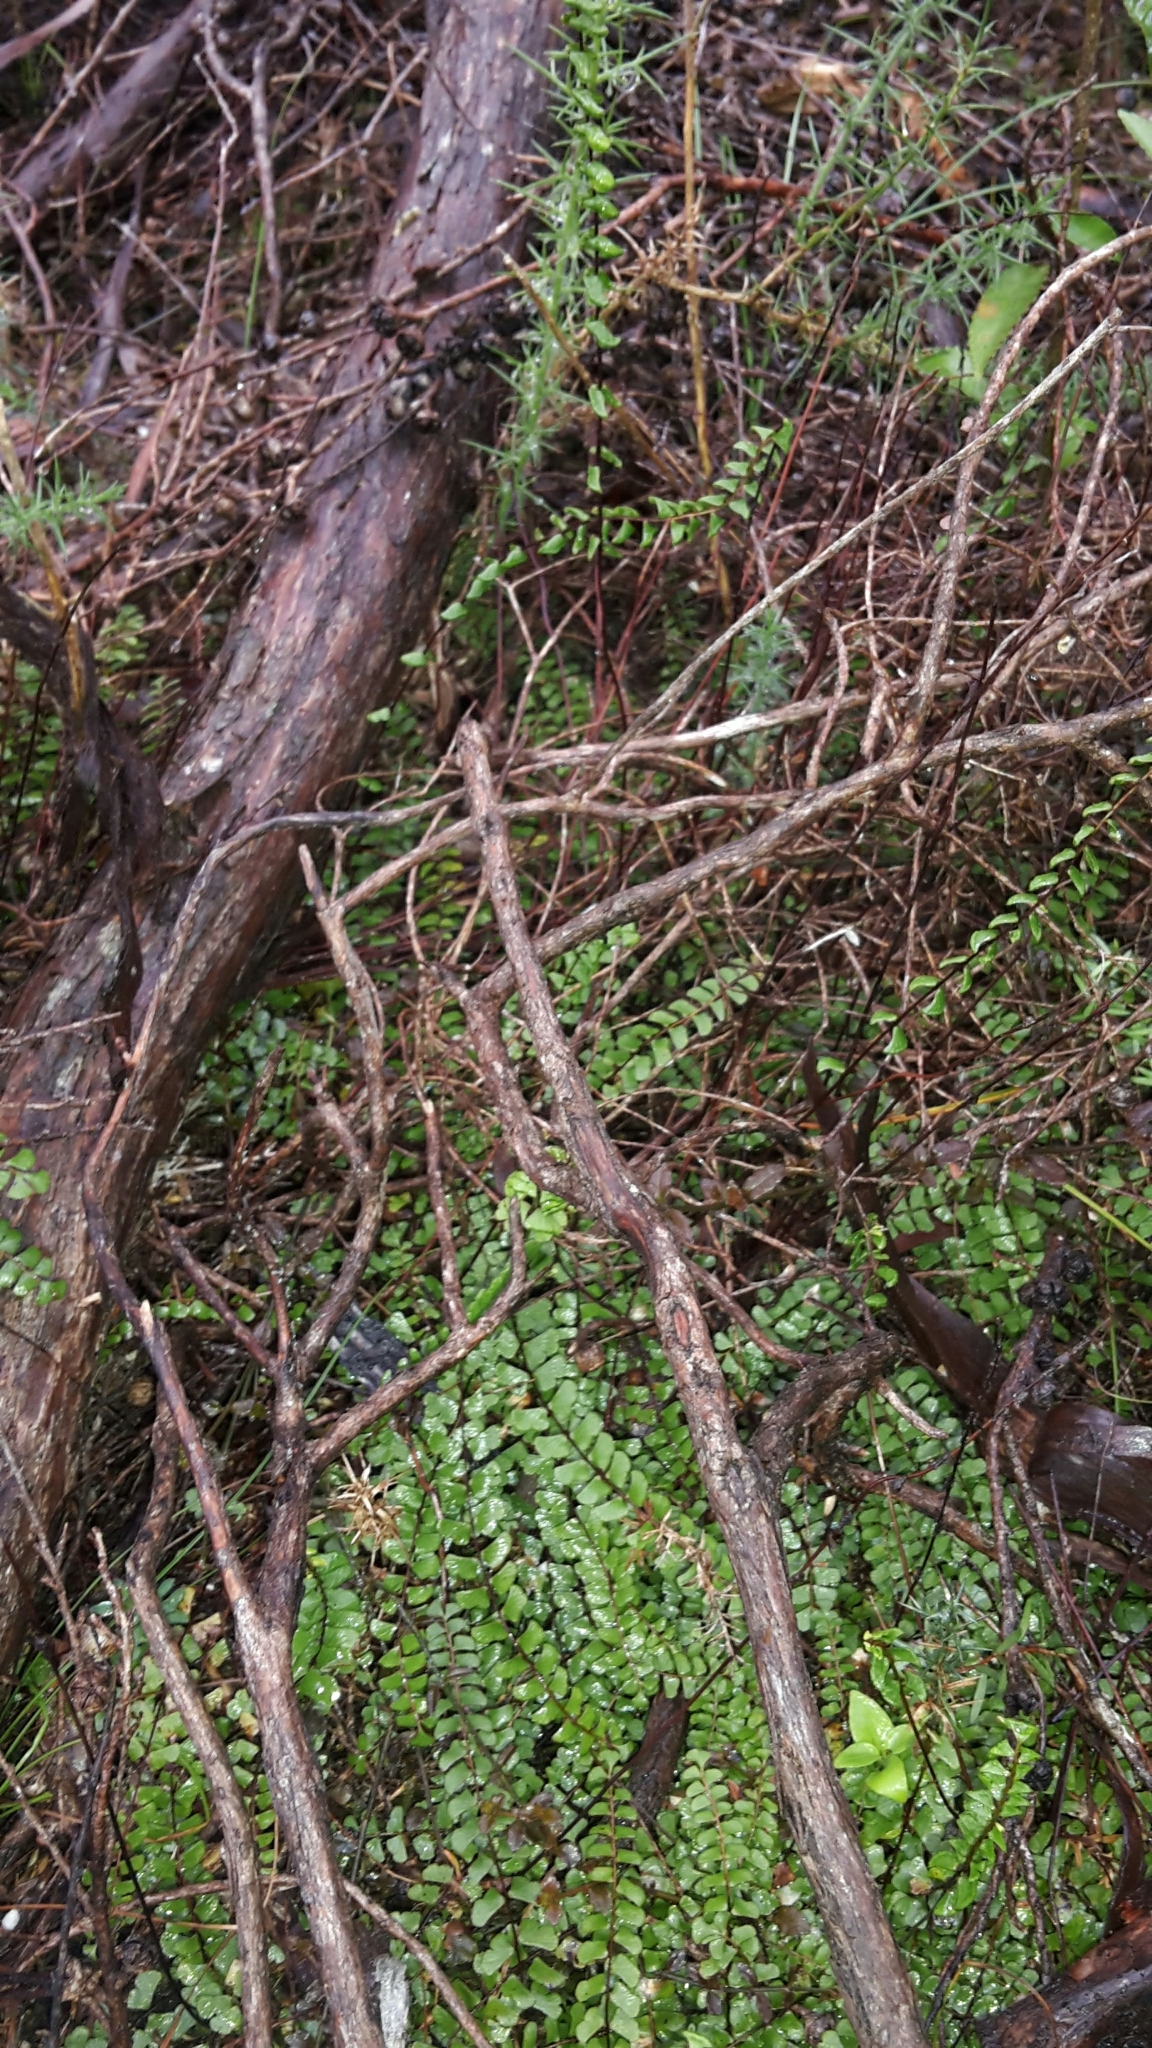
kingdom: Plantae
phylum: Tracheophyta
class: Polypodiopsida
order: Polypodiales
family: Lindsaeaceae
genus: Lindsaea
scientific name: Lindsaea linearis
